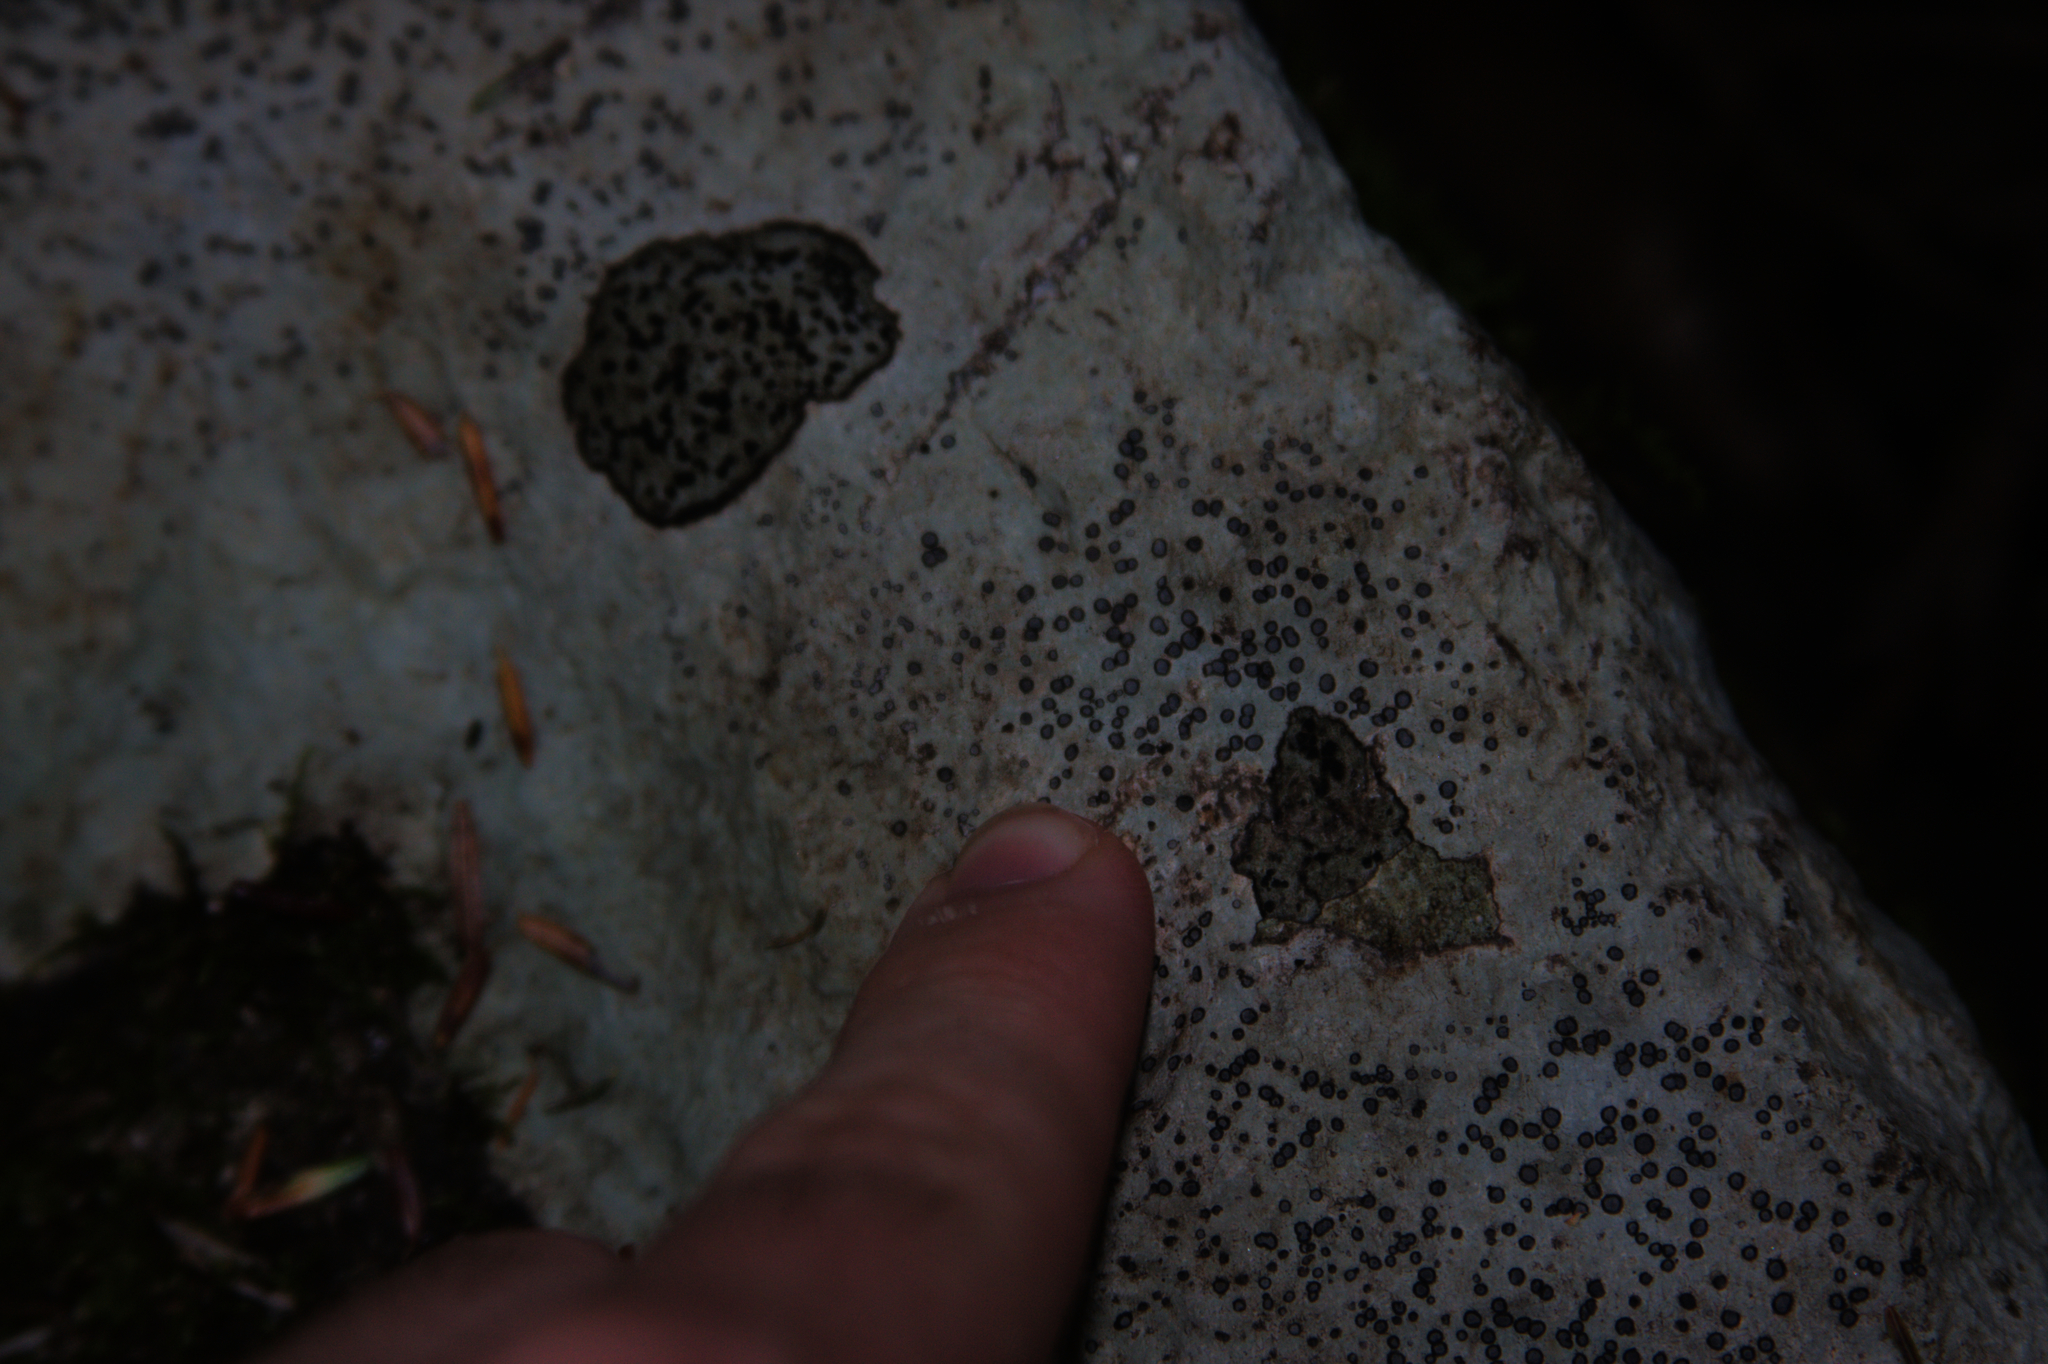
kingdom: Fungi
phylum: Ascomycota
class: Lecanoromycetes
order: Lecideales
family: Lecideaceae
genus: Porpidia
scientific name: Porpidia albocaerulescens
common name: Smokey-eyed boulder lichen
